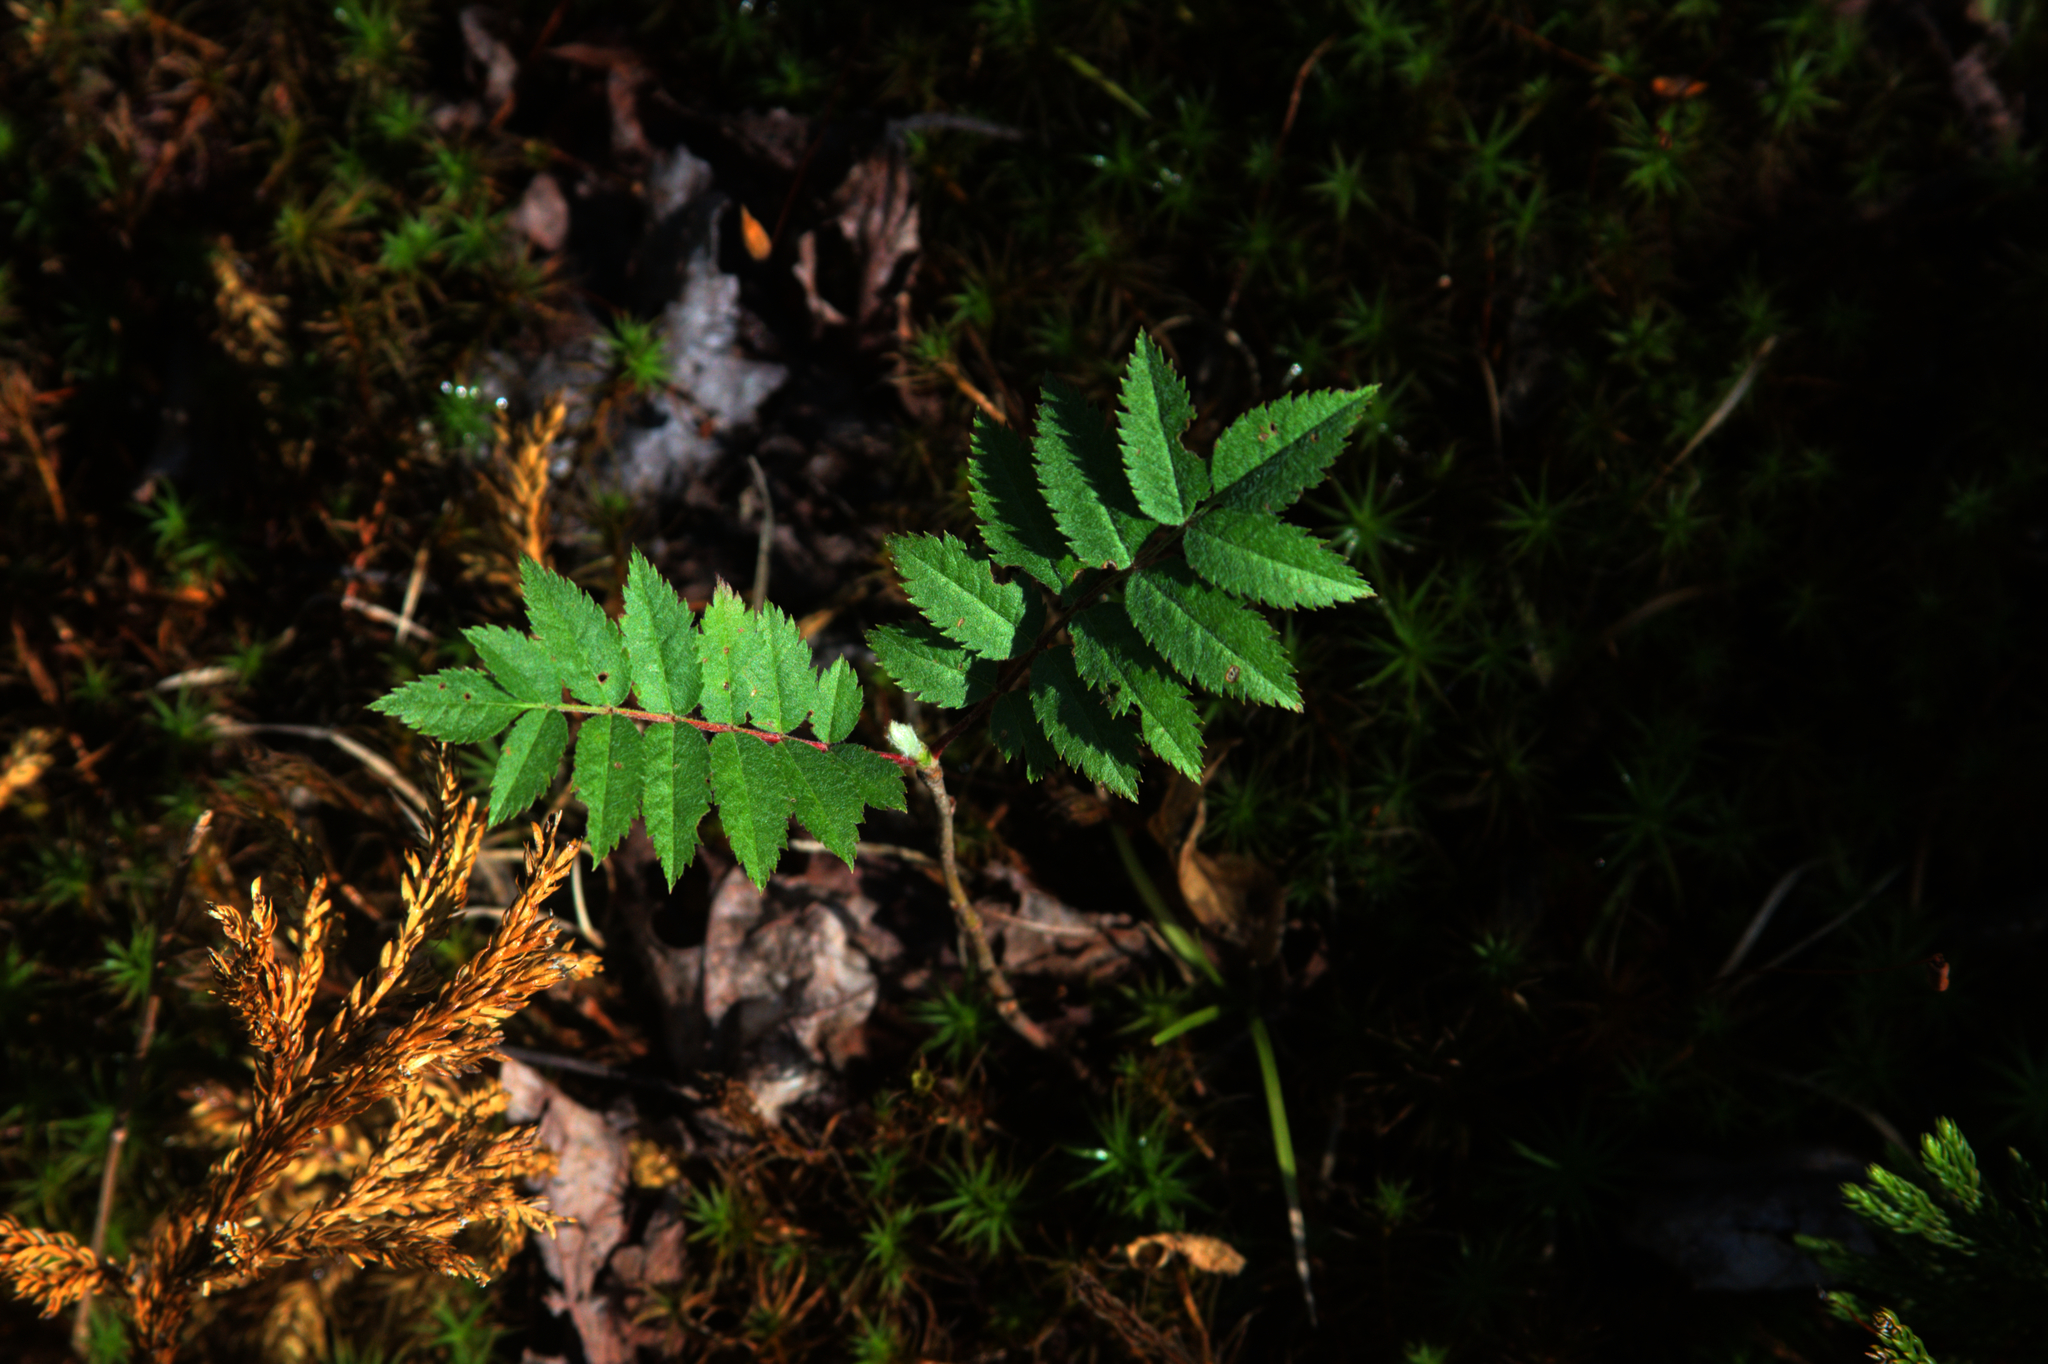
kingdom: Plantae
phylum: Tracheophyta
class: Magnoliopsida
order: Rosales
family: Rosaceae
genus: Sorbus
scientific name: Sorbus americana
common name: American mountain-ash
